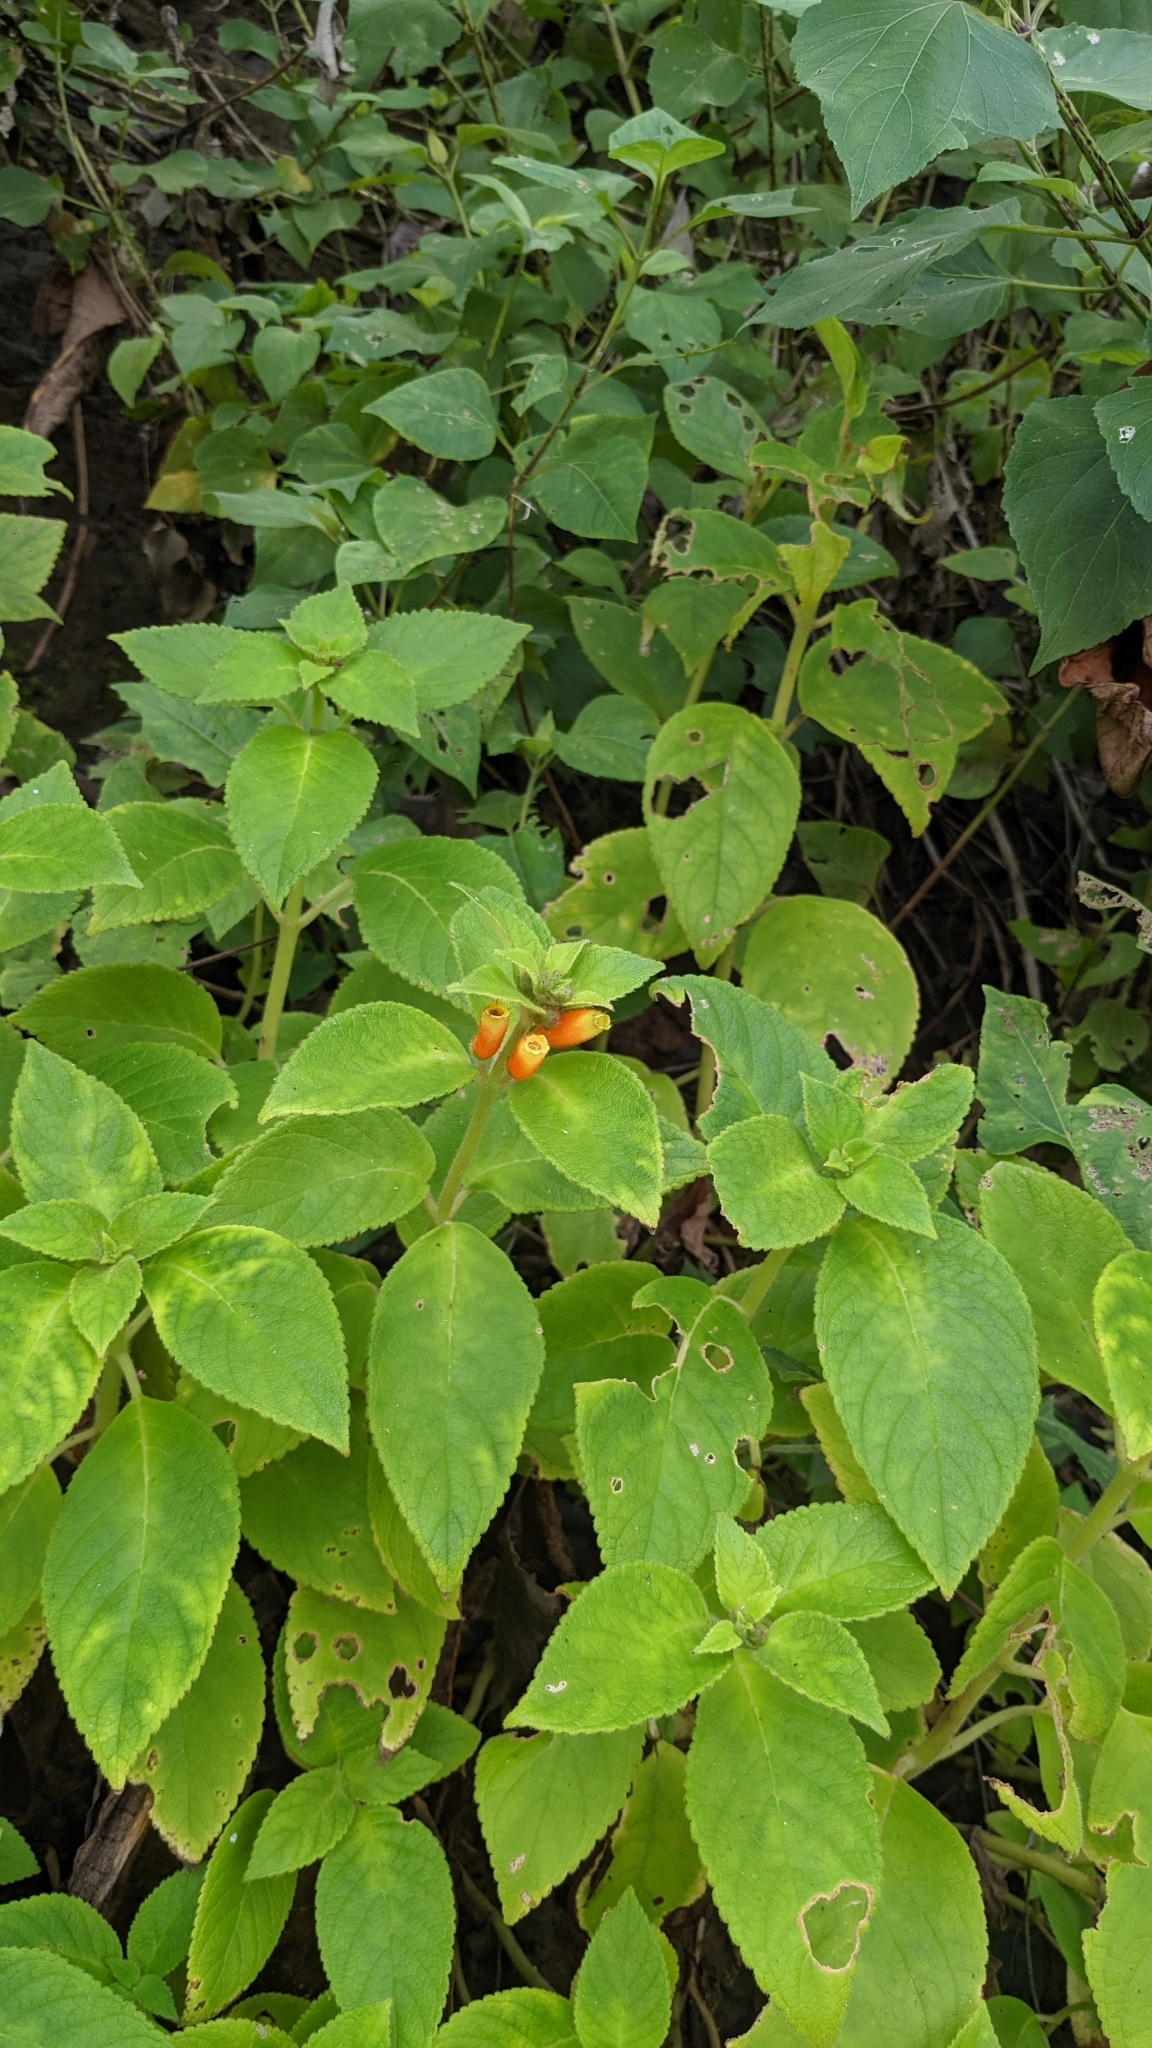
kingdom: Plantae
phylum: Tracheophyta
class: Magnoliopsida
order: Lamiales
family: Gesneriaceae
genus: Kohleria
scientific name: Kohleria tubiflora
